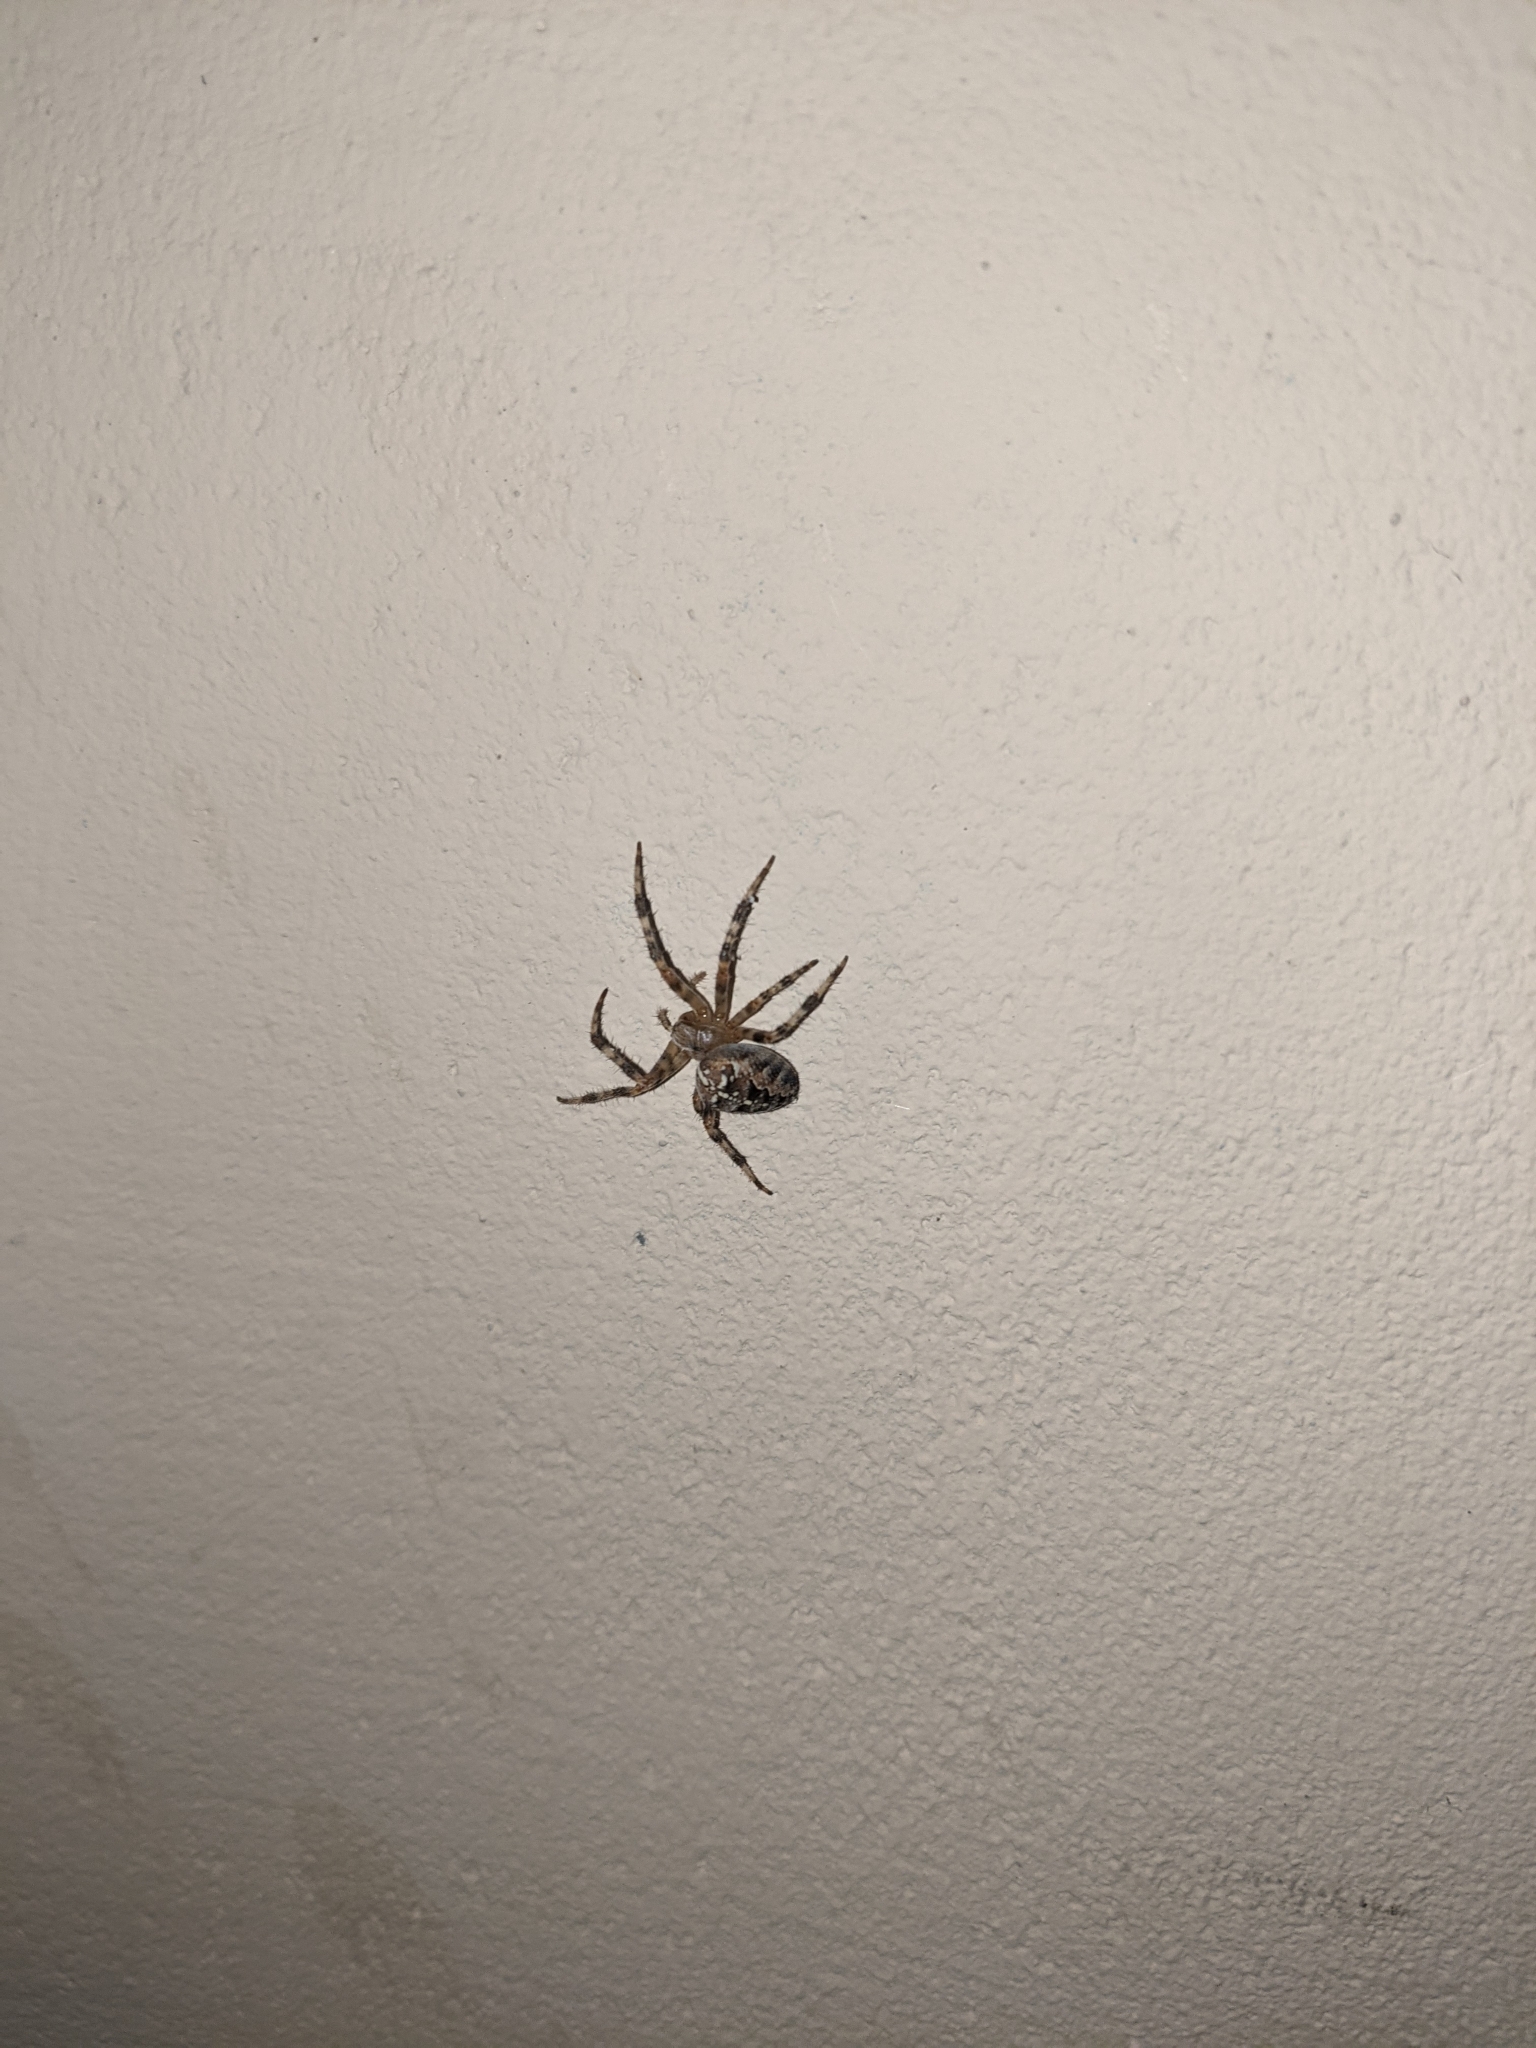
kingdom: Animalia
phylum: Arthropoda
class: Arachnida
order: Araneae
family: Araneidae
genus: Araneus
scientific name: Araneus diadematus
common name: Cross orbweaver
